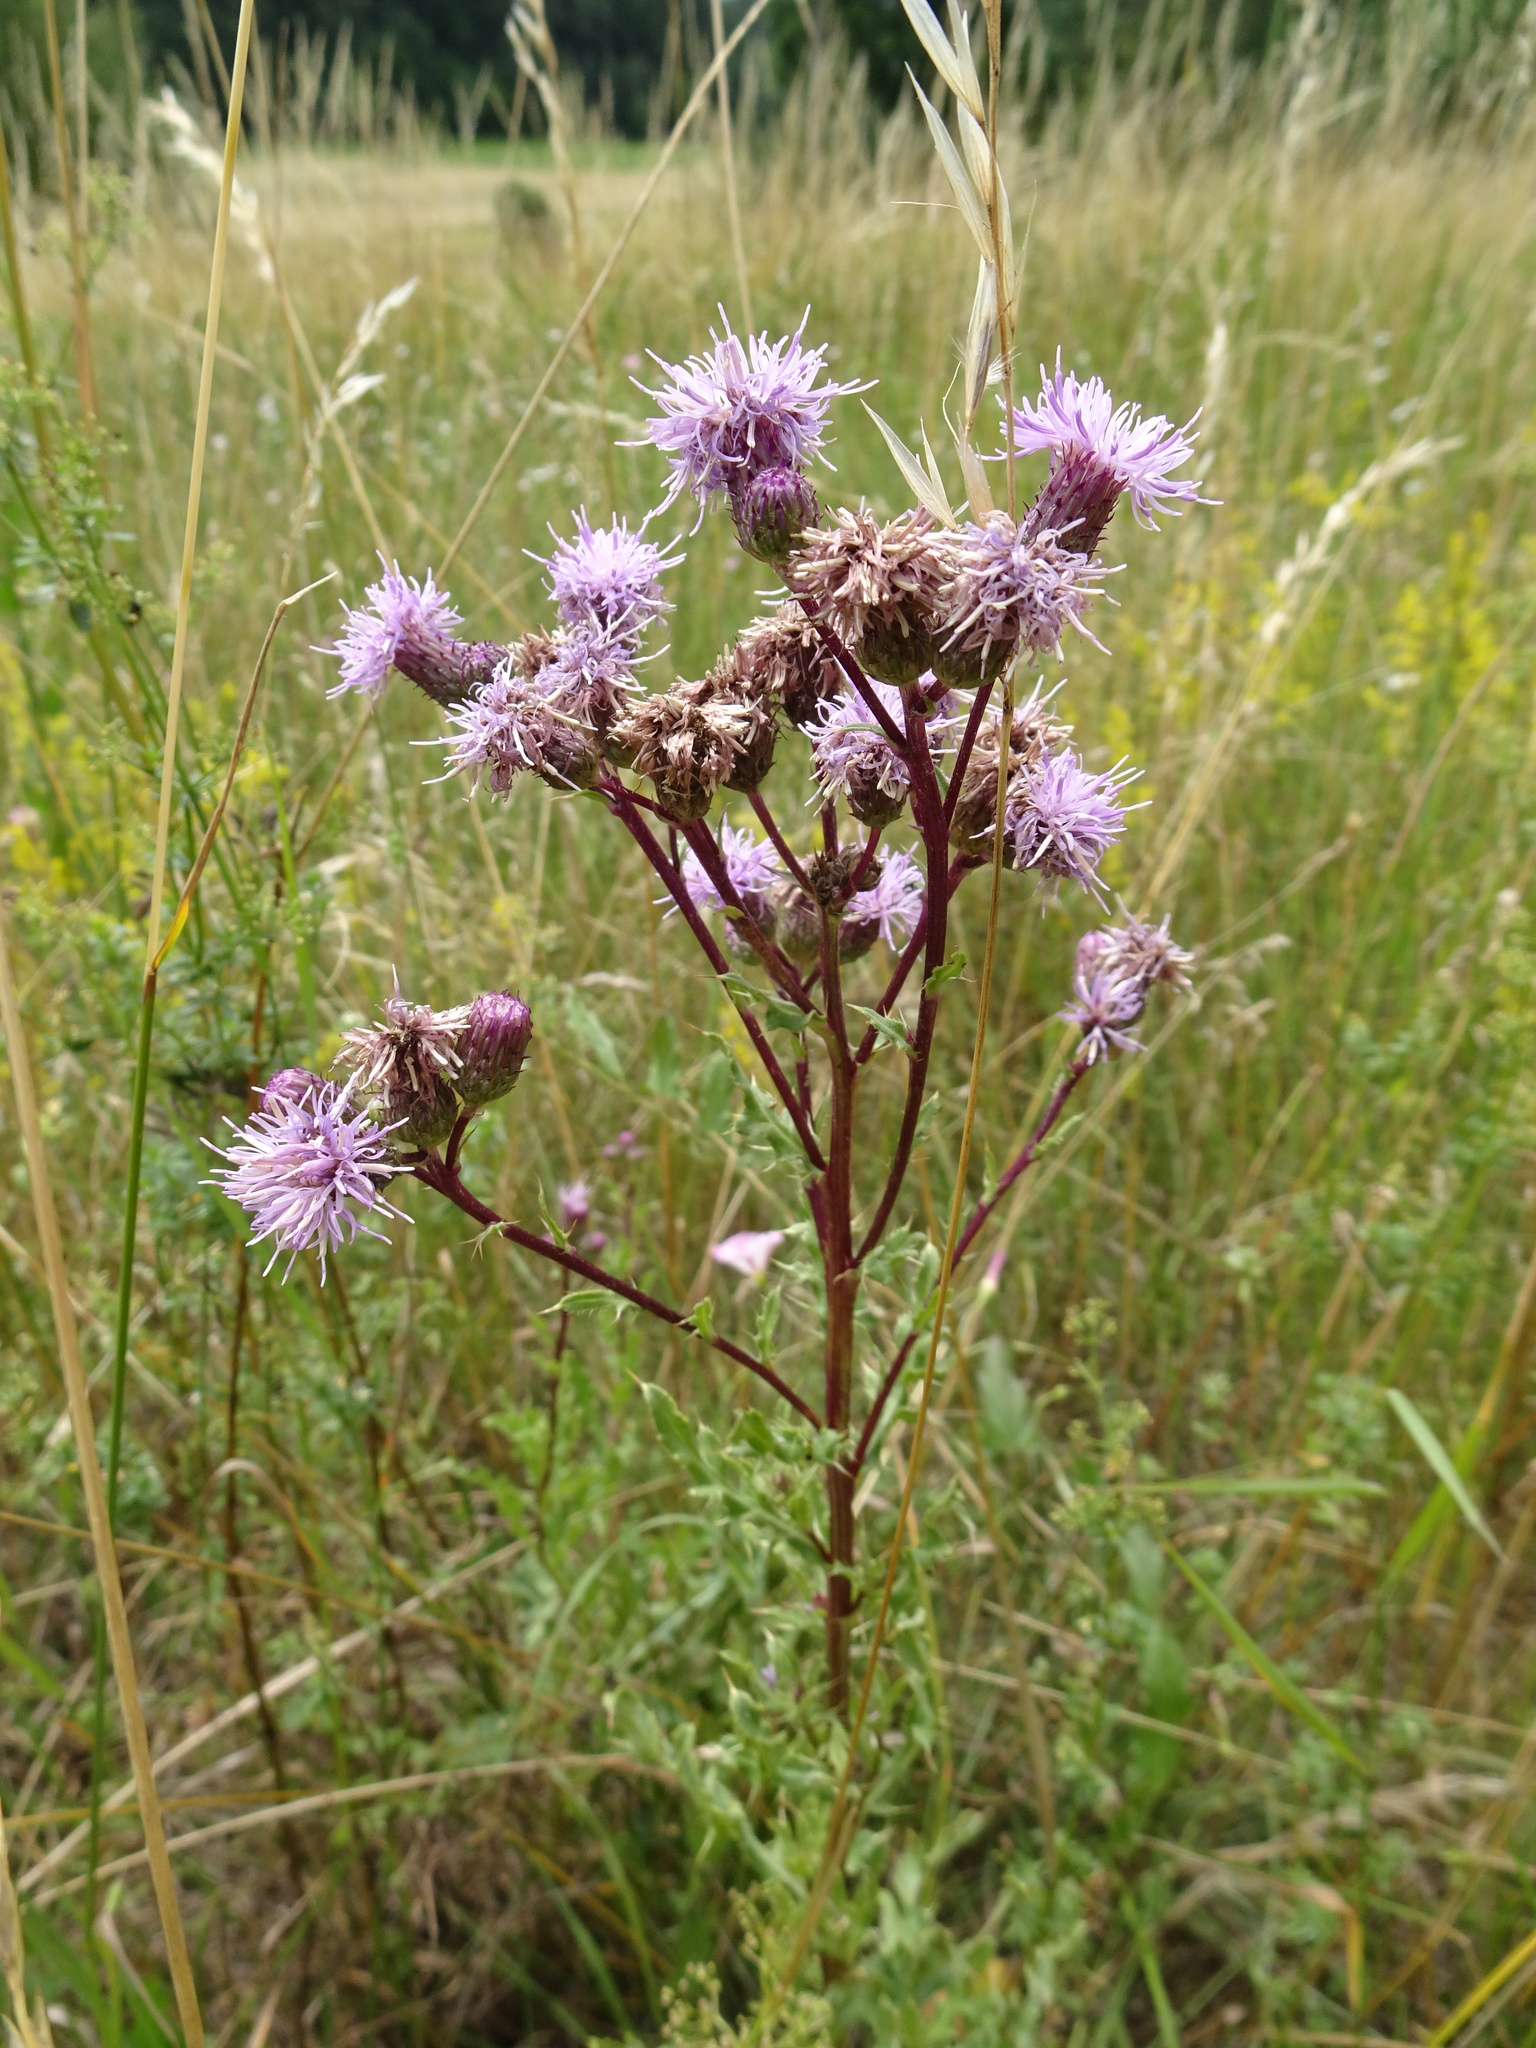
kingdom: Plantae
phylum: Tracheophyta
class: Magnoliopsida
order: Asterales
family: Asteraceae
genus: Cirsium
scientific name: Cirsium arvense
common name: Creeping thistle
